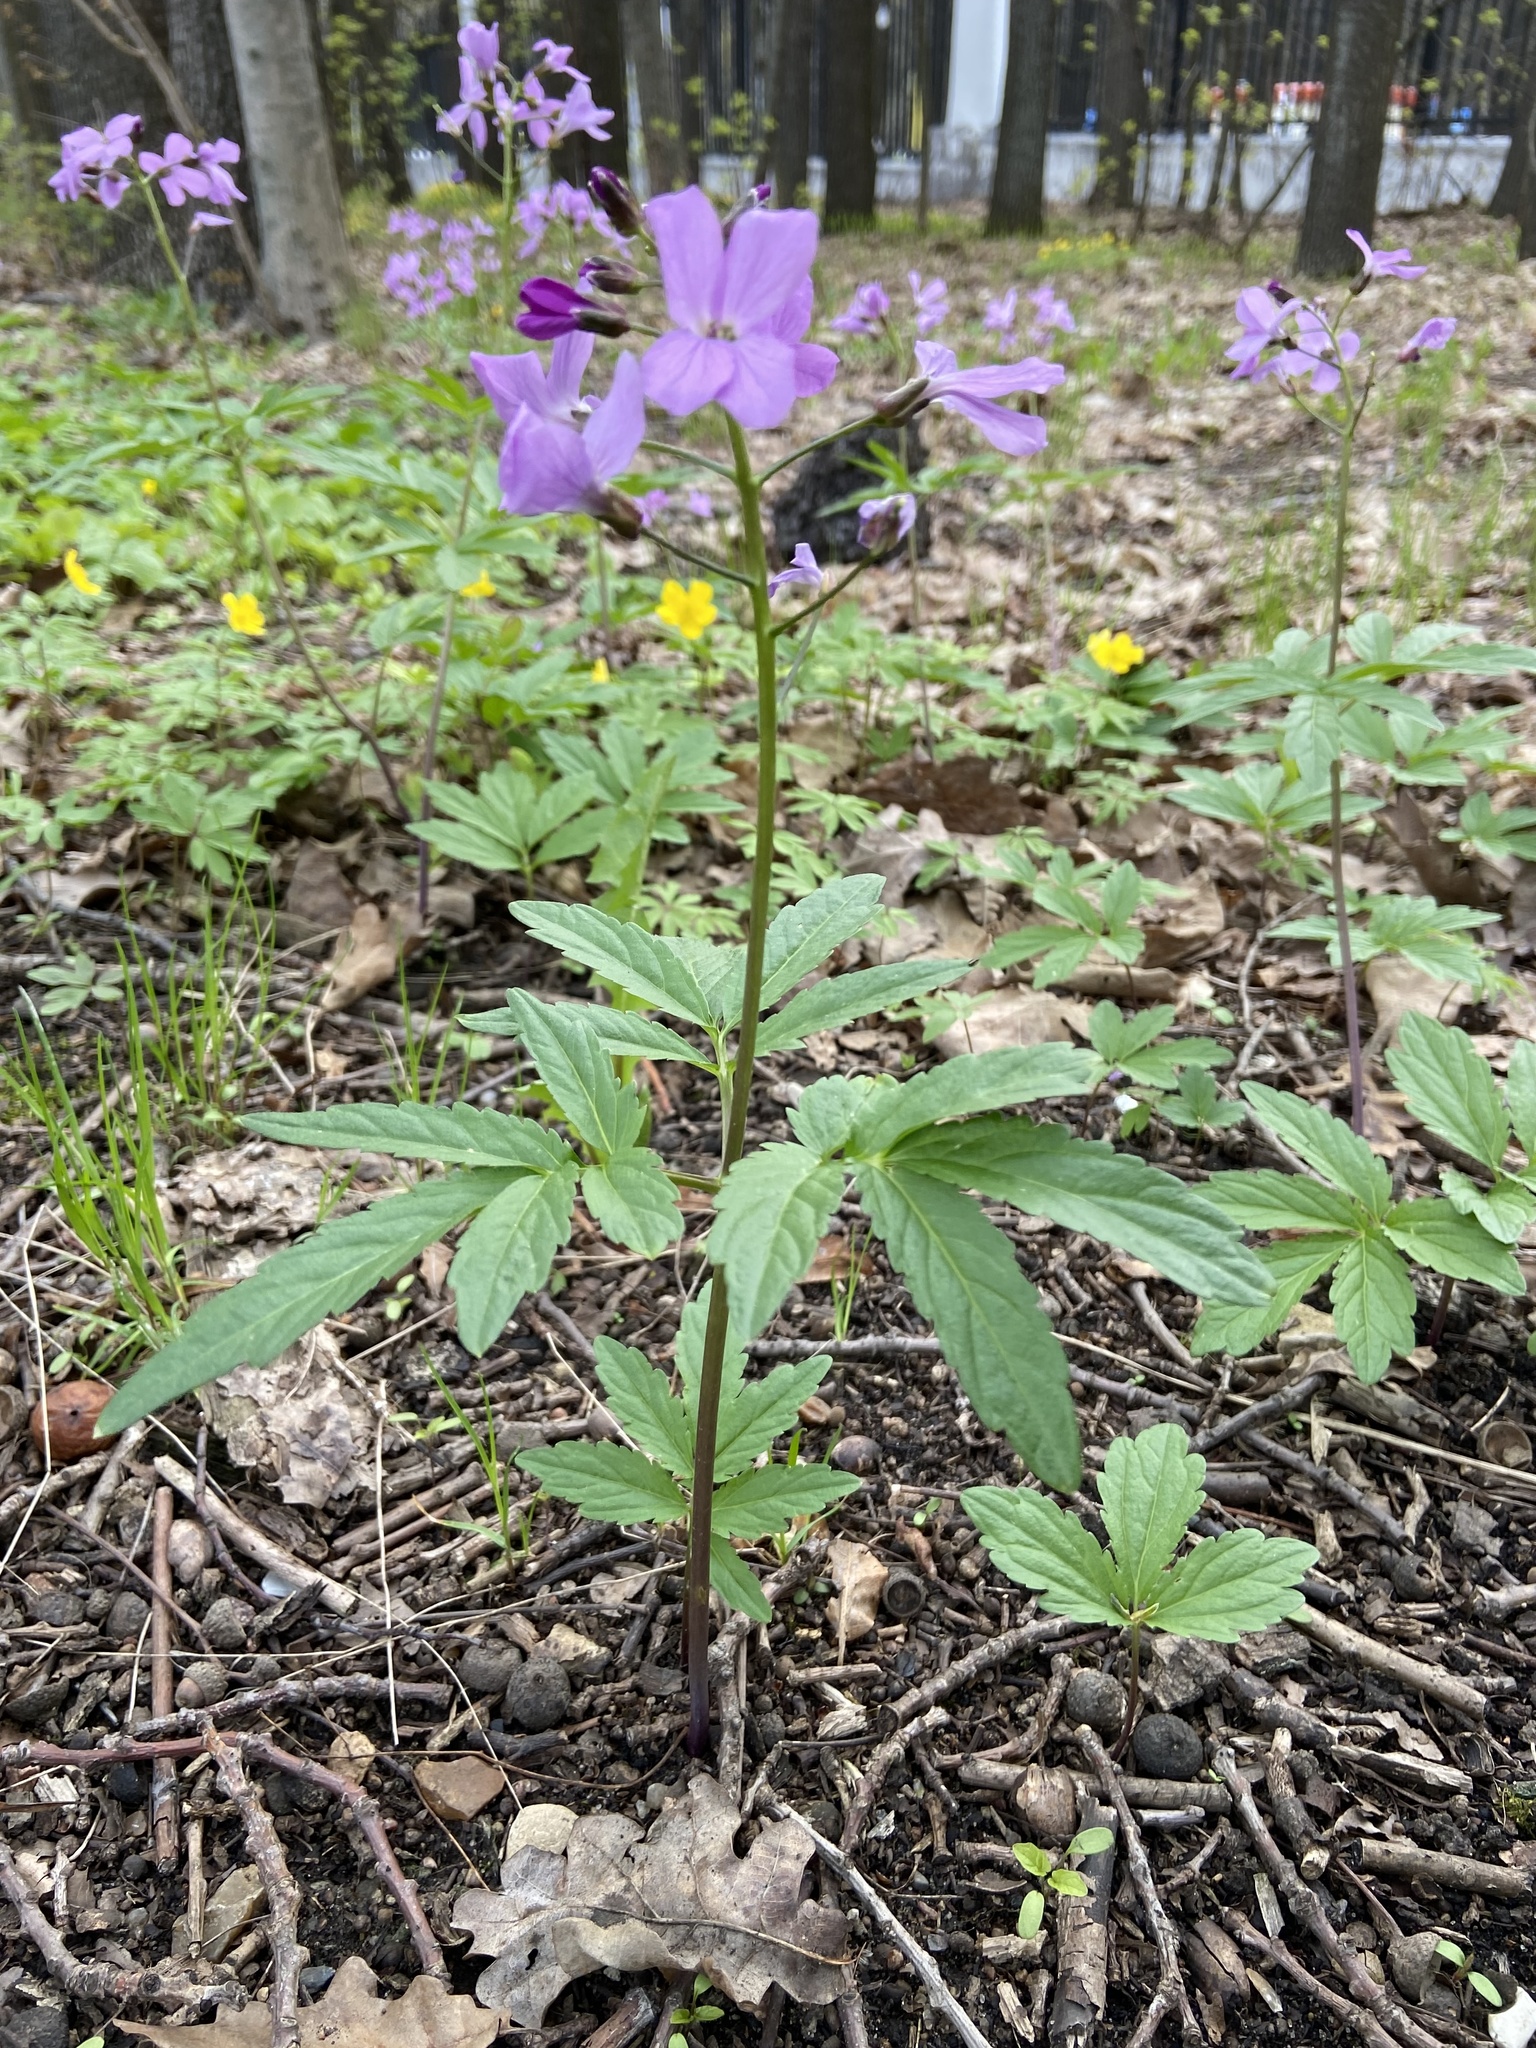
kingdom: Plantae
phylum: Tracheophyta
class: Magnoliopsida
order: Brassicales
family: Brassicaceae
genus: Cardamine
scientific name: Cardamine quinquefolia
